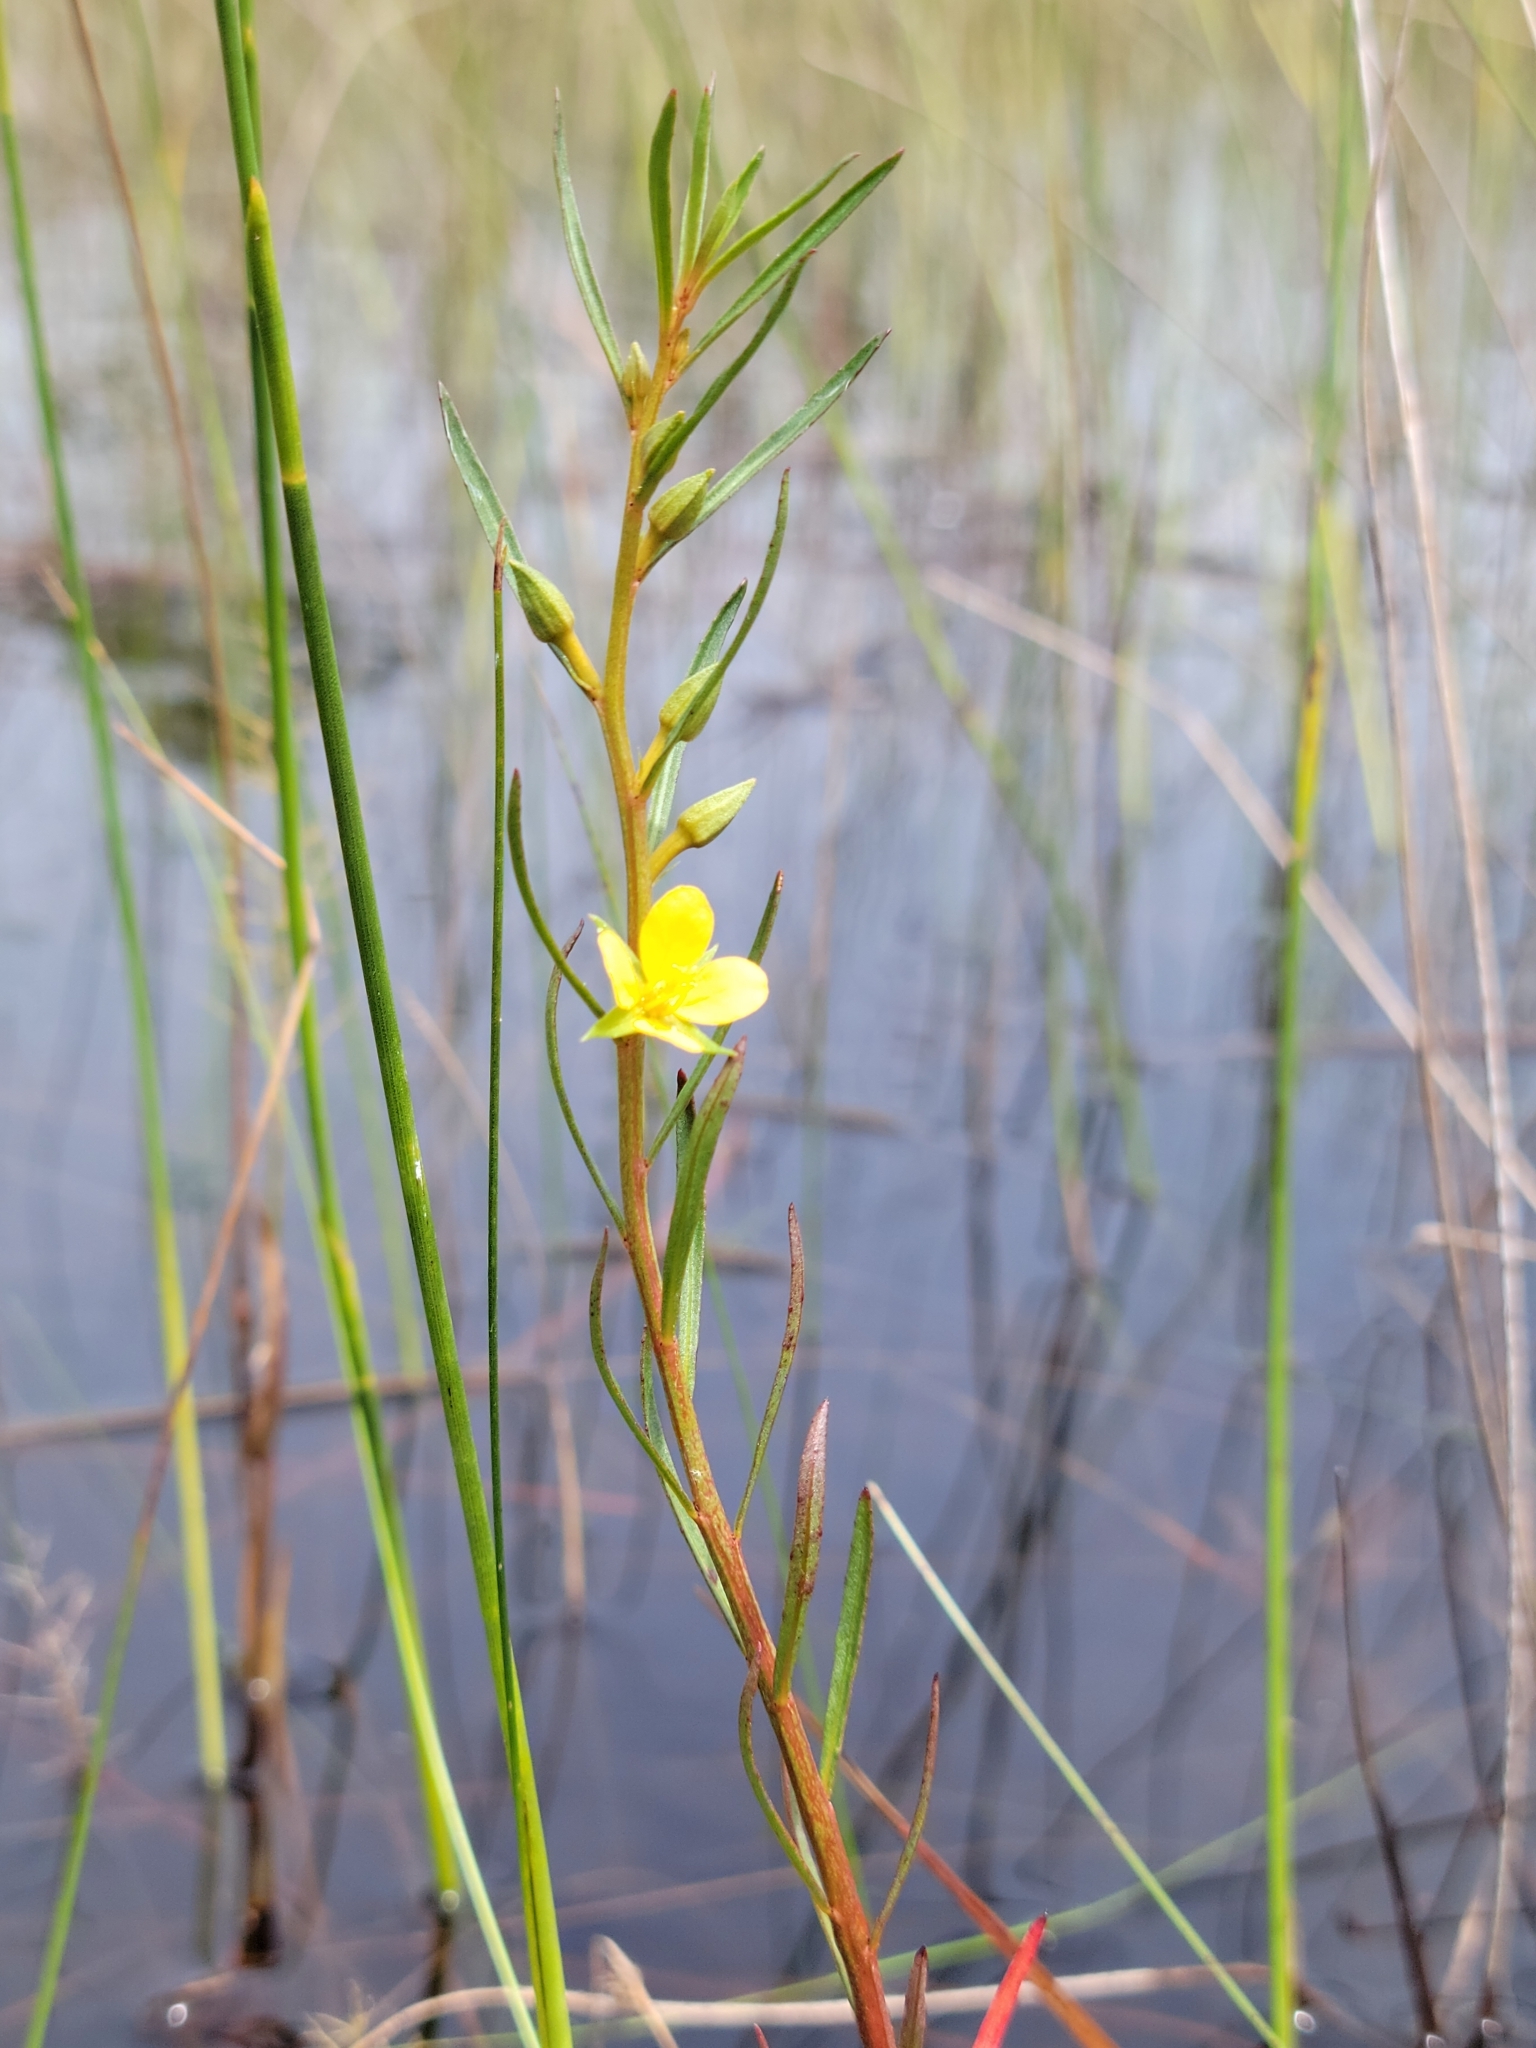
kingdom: Plantae
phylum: Tracheophyta
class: Magnoliopsida
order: Myrtales
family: Onagraceae
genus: Ludwigia
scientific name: Ludwigia linifolia
